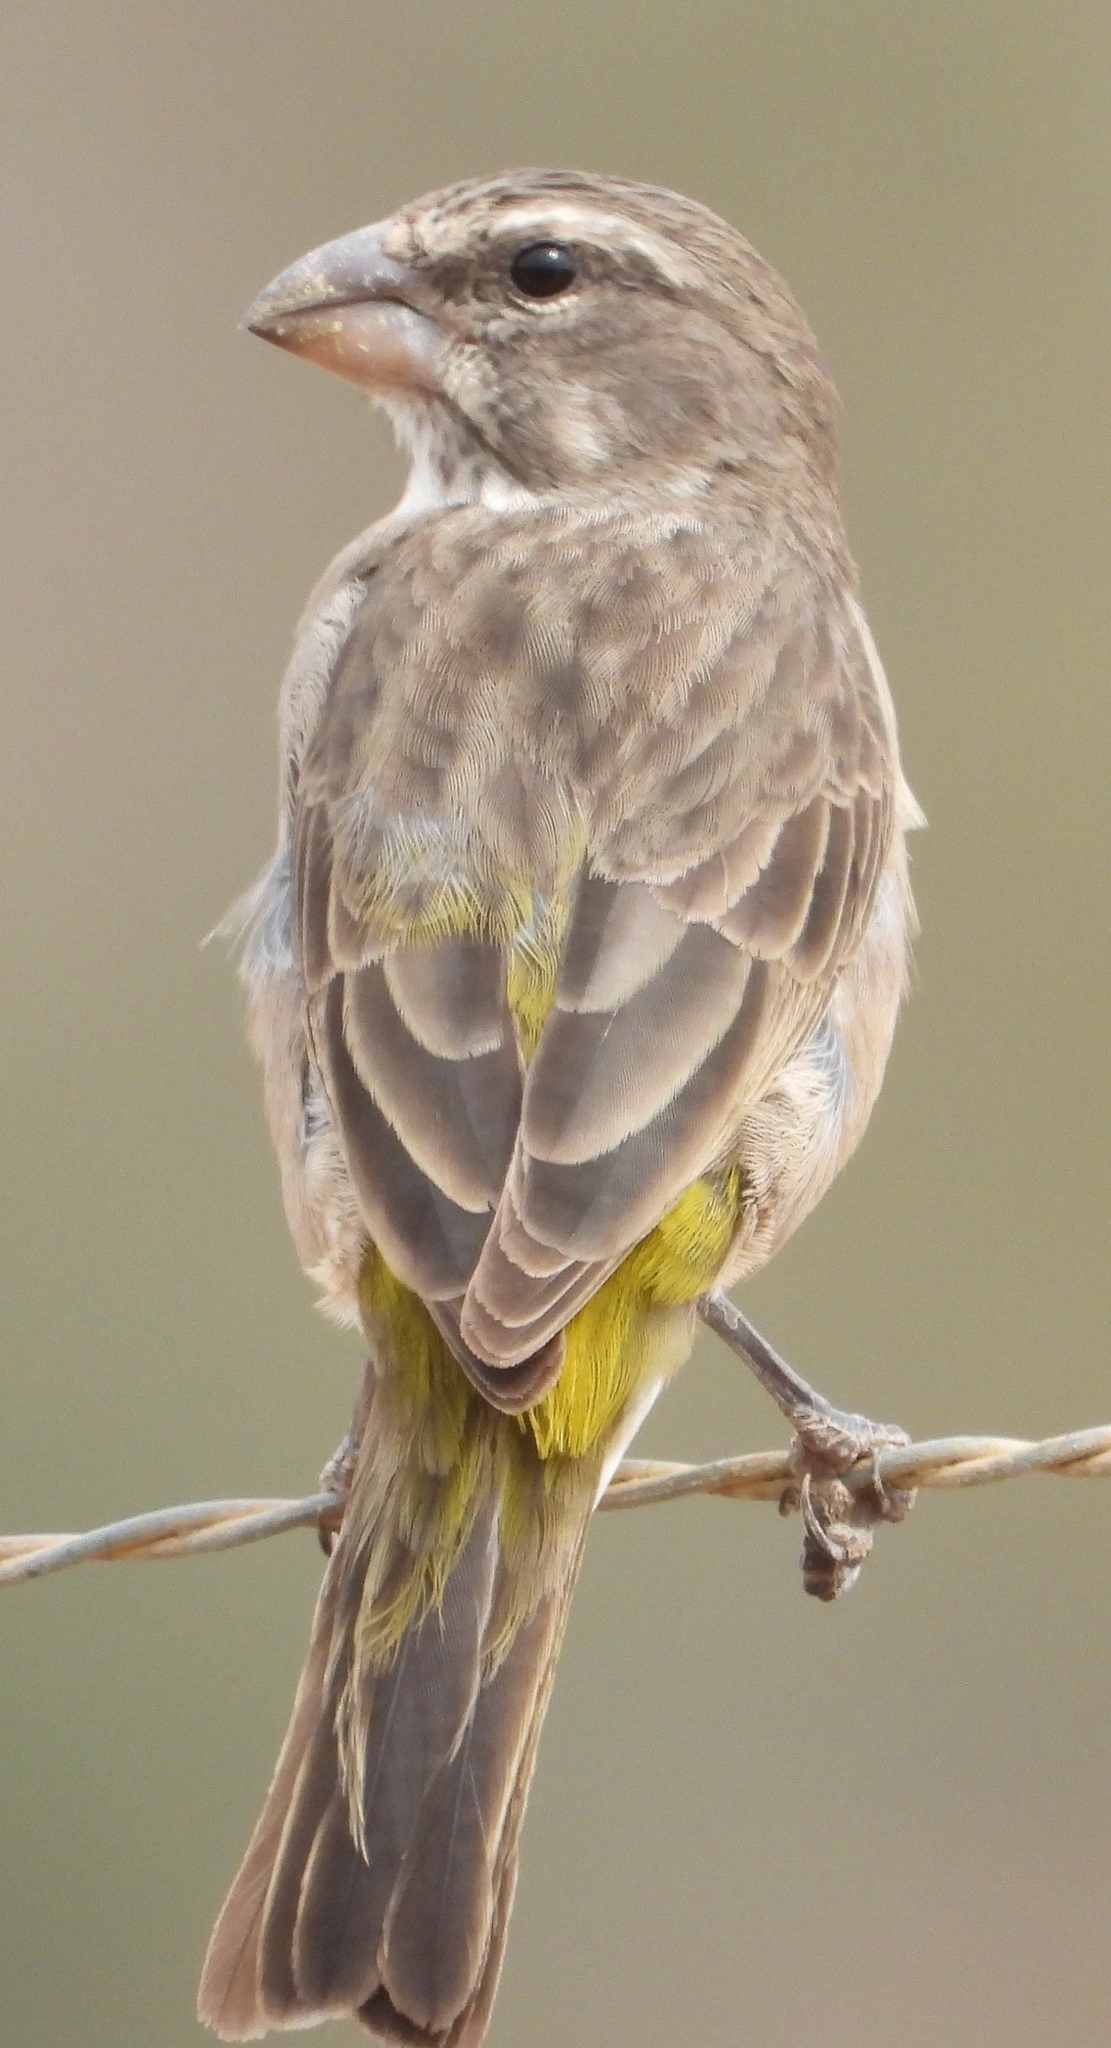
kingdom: Animalia
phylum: Chordata
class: Aves
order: Passeriformes
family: Fringillidae
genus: Crithagra
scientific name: Crithagra albogularis
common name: White-throated canary
